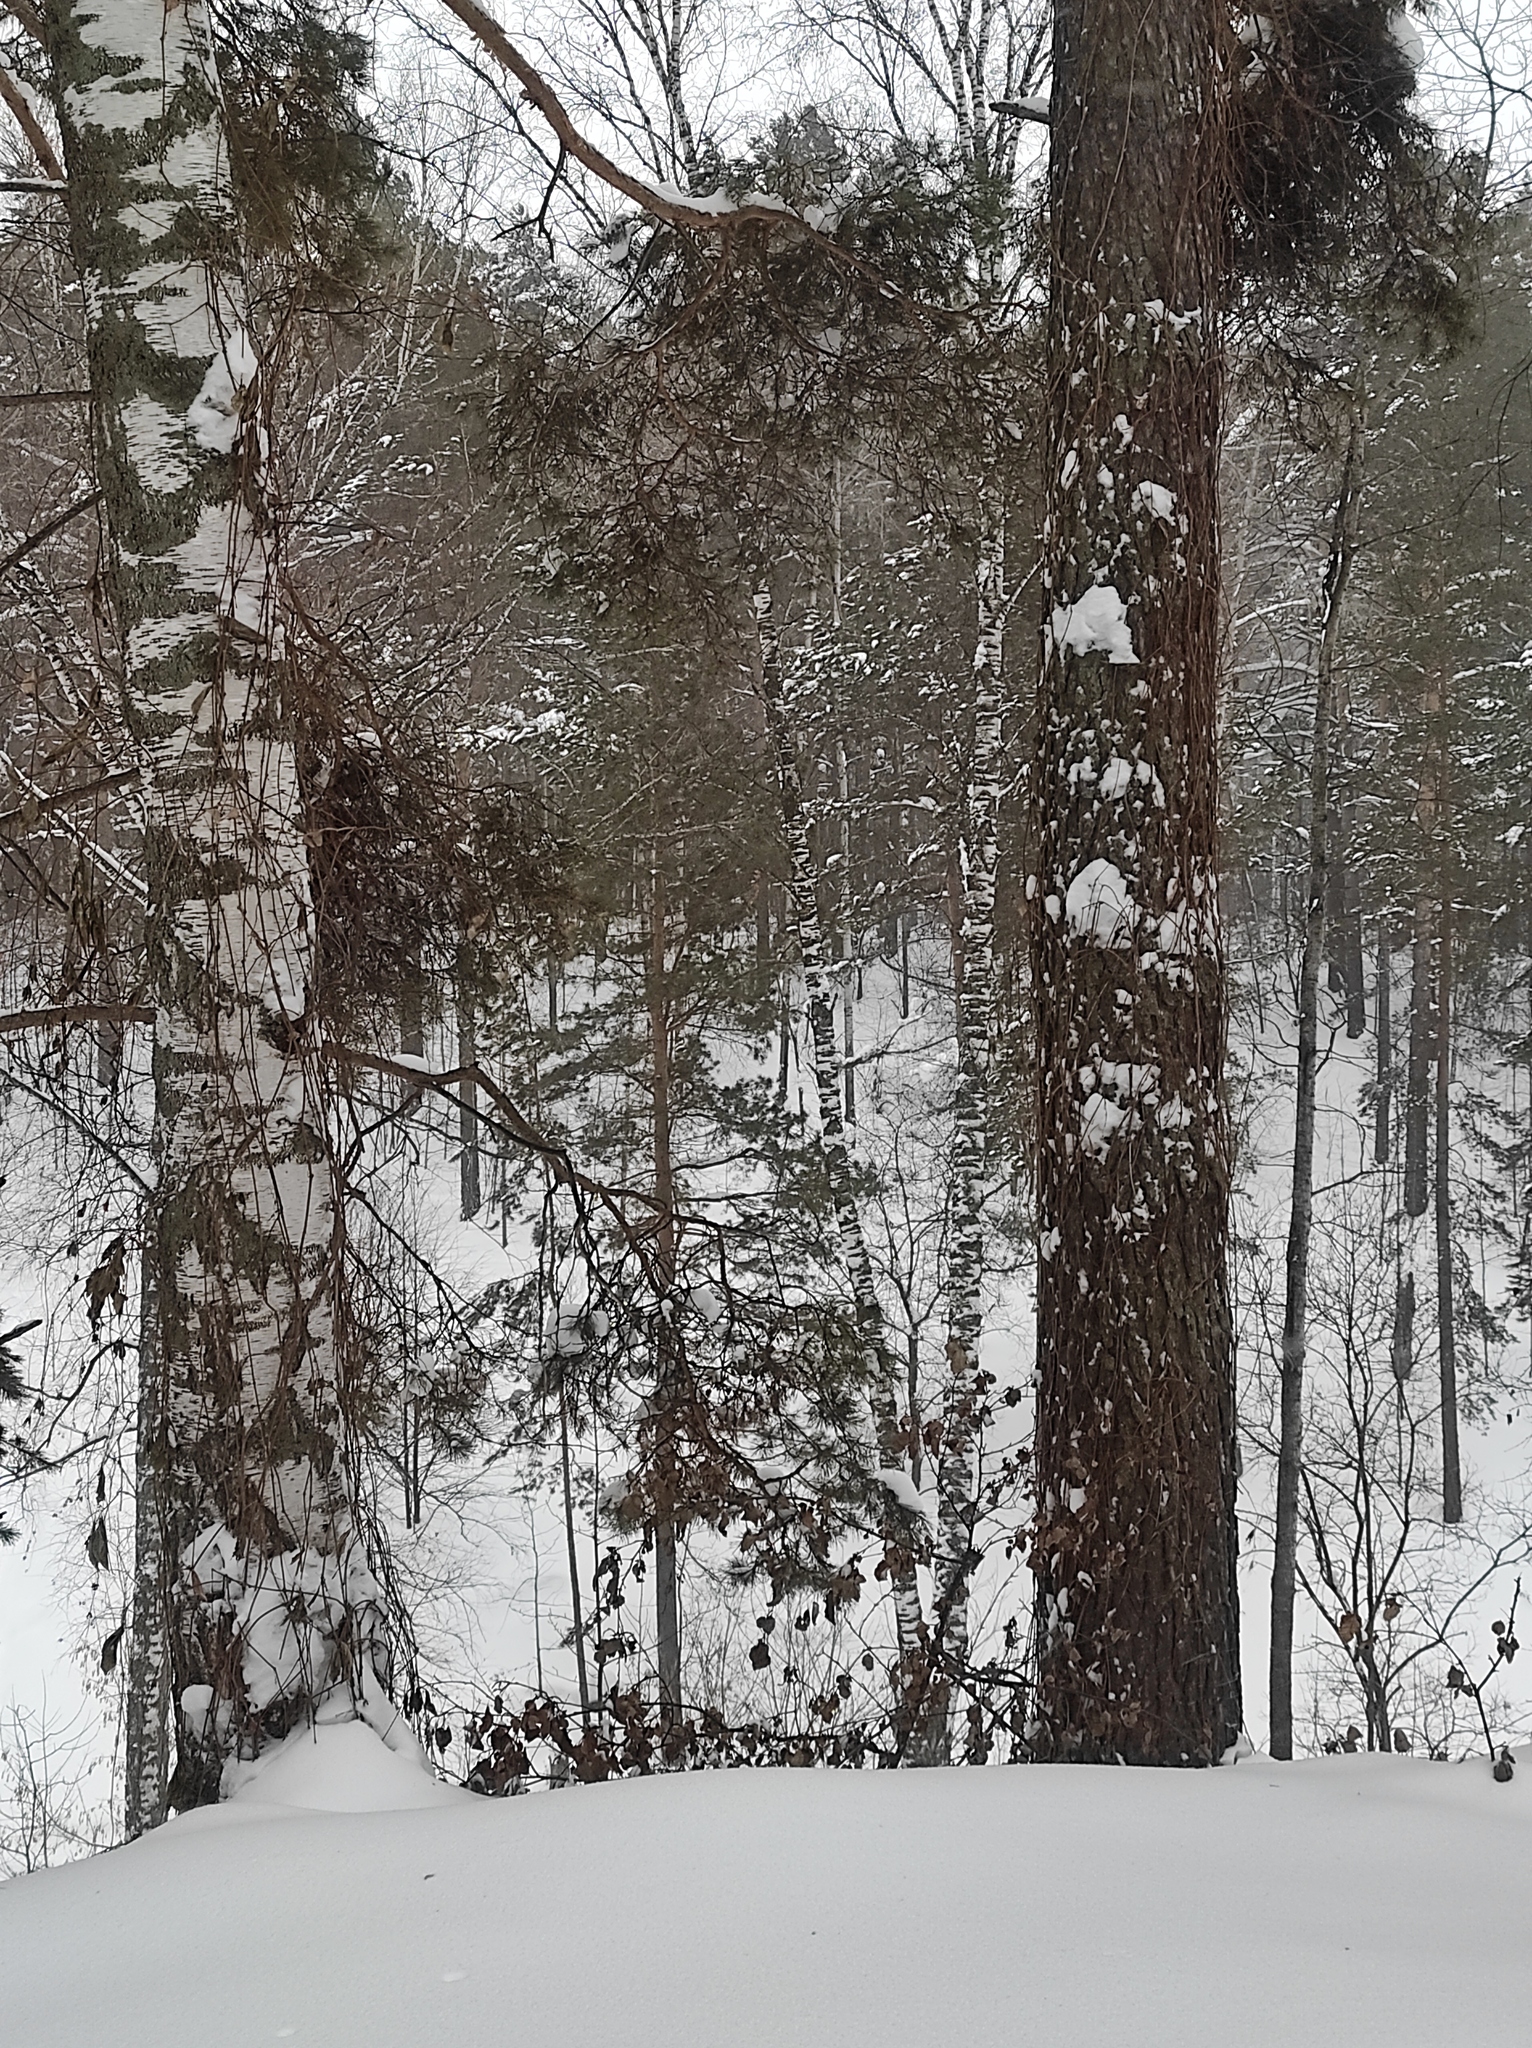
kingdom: Plantae
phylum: Tracheophyta
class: Pinopsida
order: Pinales
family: Pinaceae
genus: Pinus
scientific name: Pinus sylvestris
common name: Scots pine
